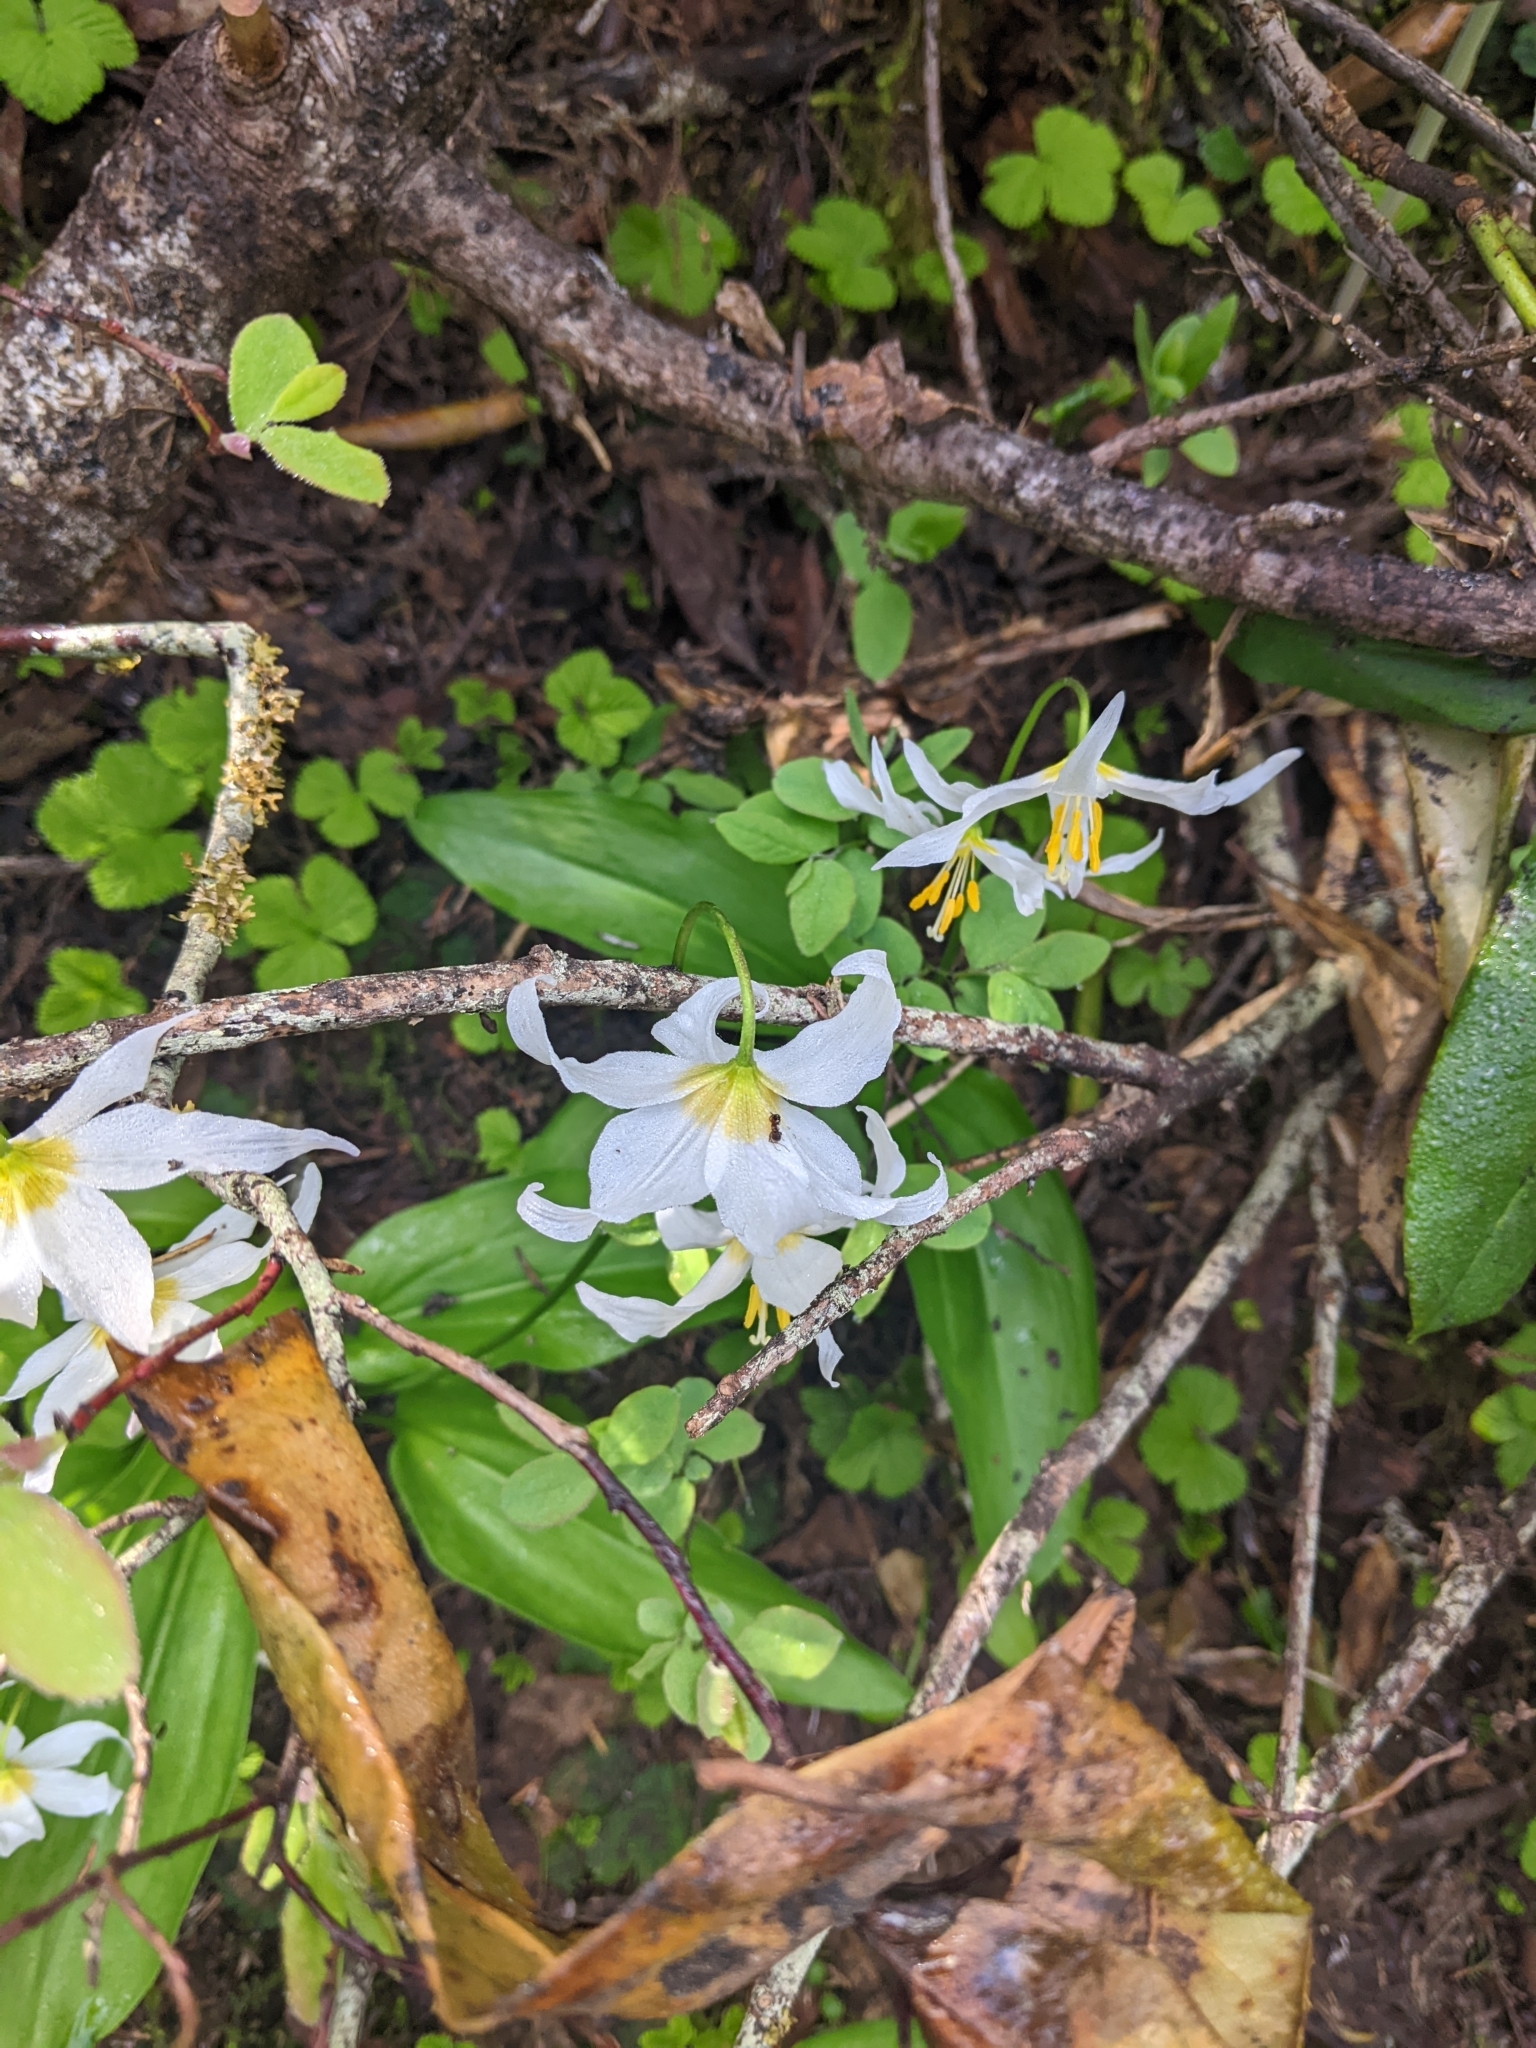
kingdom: Plantae
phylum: Tracheophyta
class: Liliopsida
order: Liliales
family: Liliaceae
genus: Erythronium
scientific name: Erythronium montanum
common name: Avalanche lily
